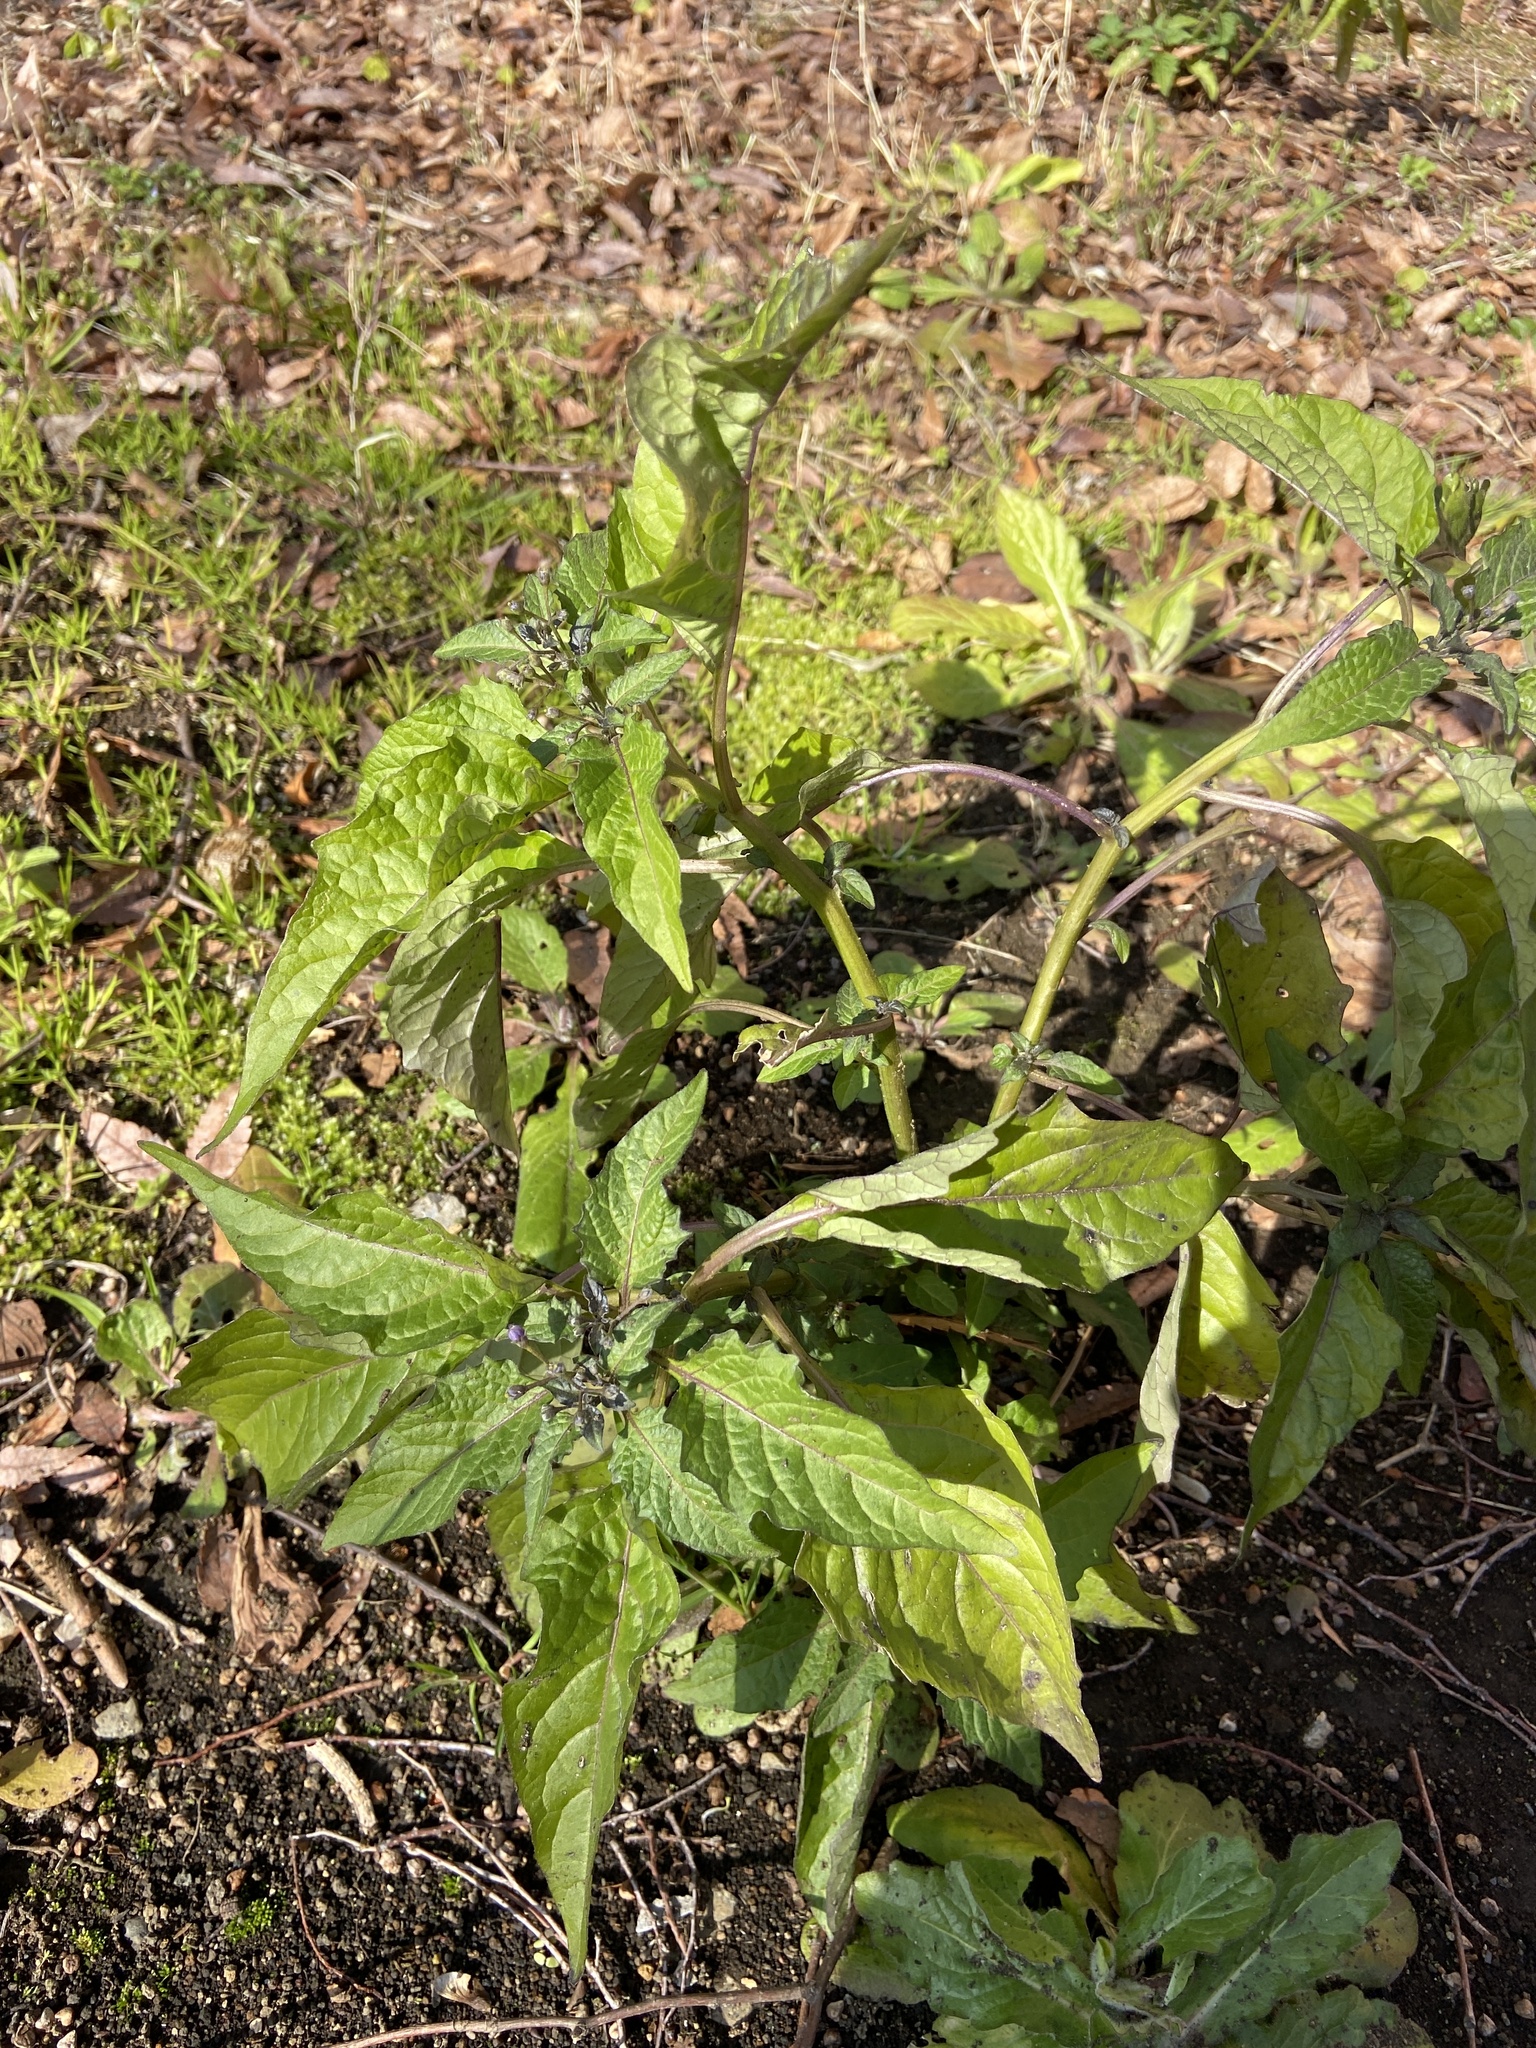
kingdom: Plantae
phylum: Tracheophyta
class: Magnoliopsida
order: Solanales
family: Solanaceae
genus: Solanum
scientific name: Solanum
